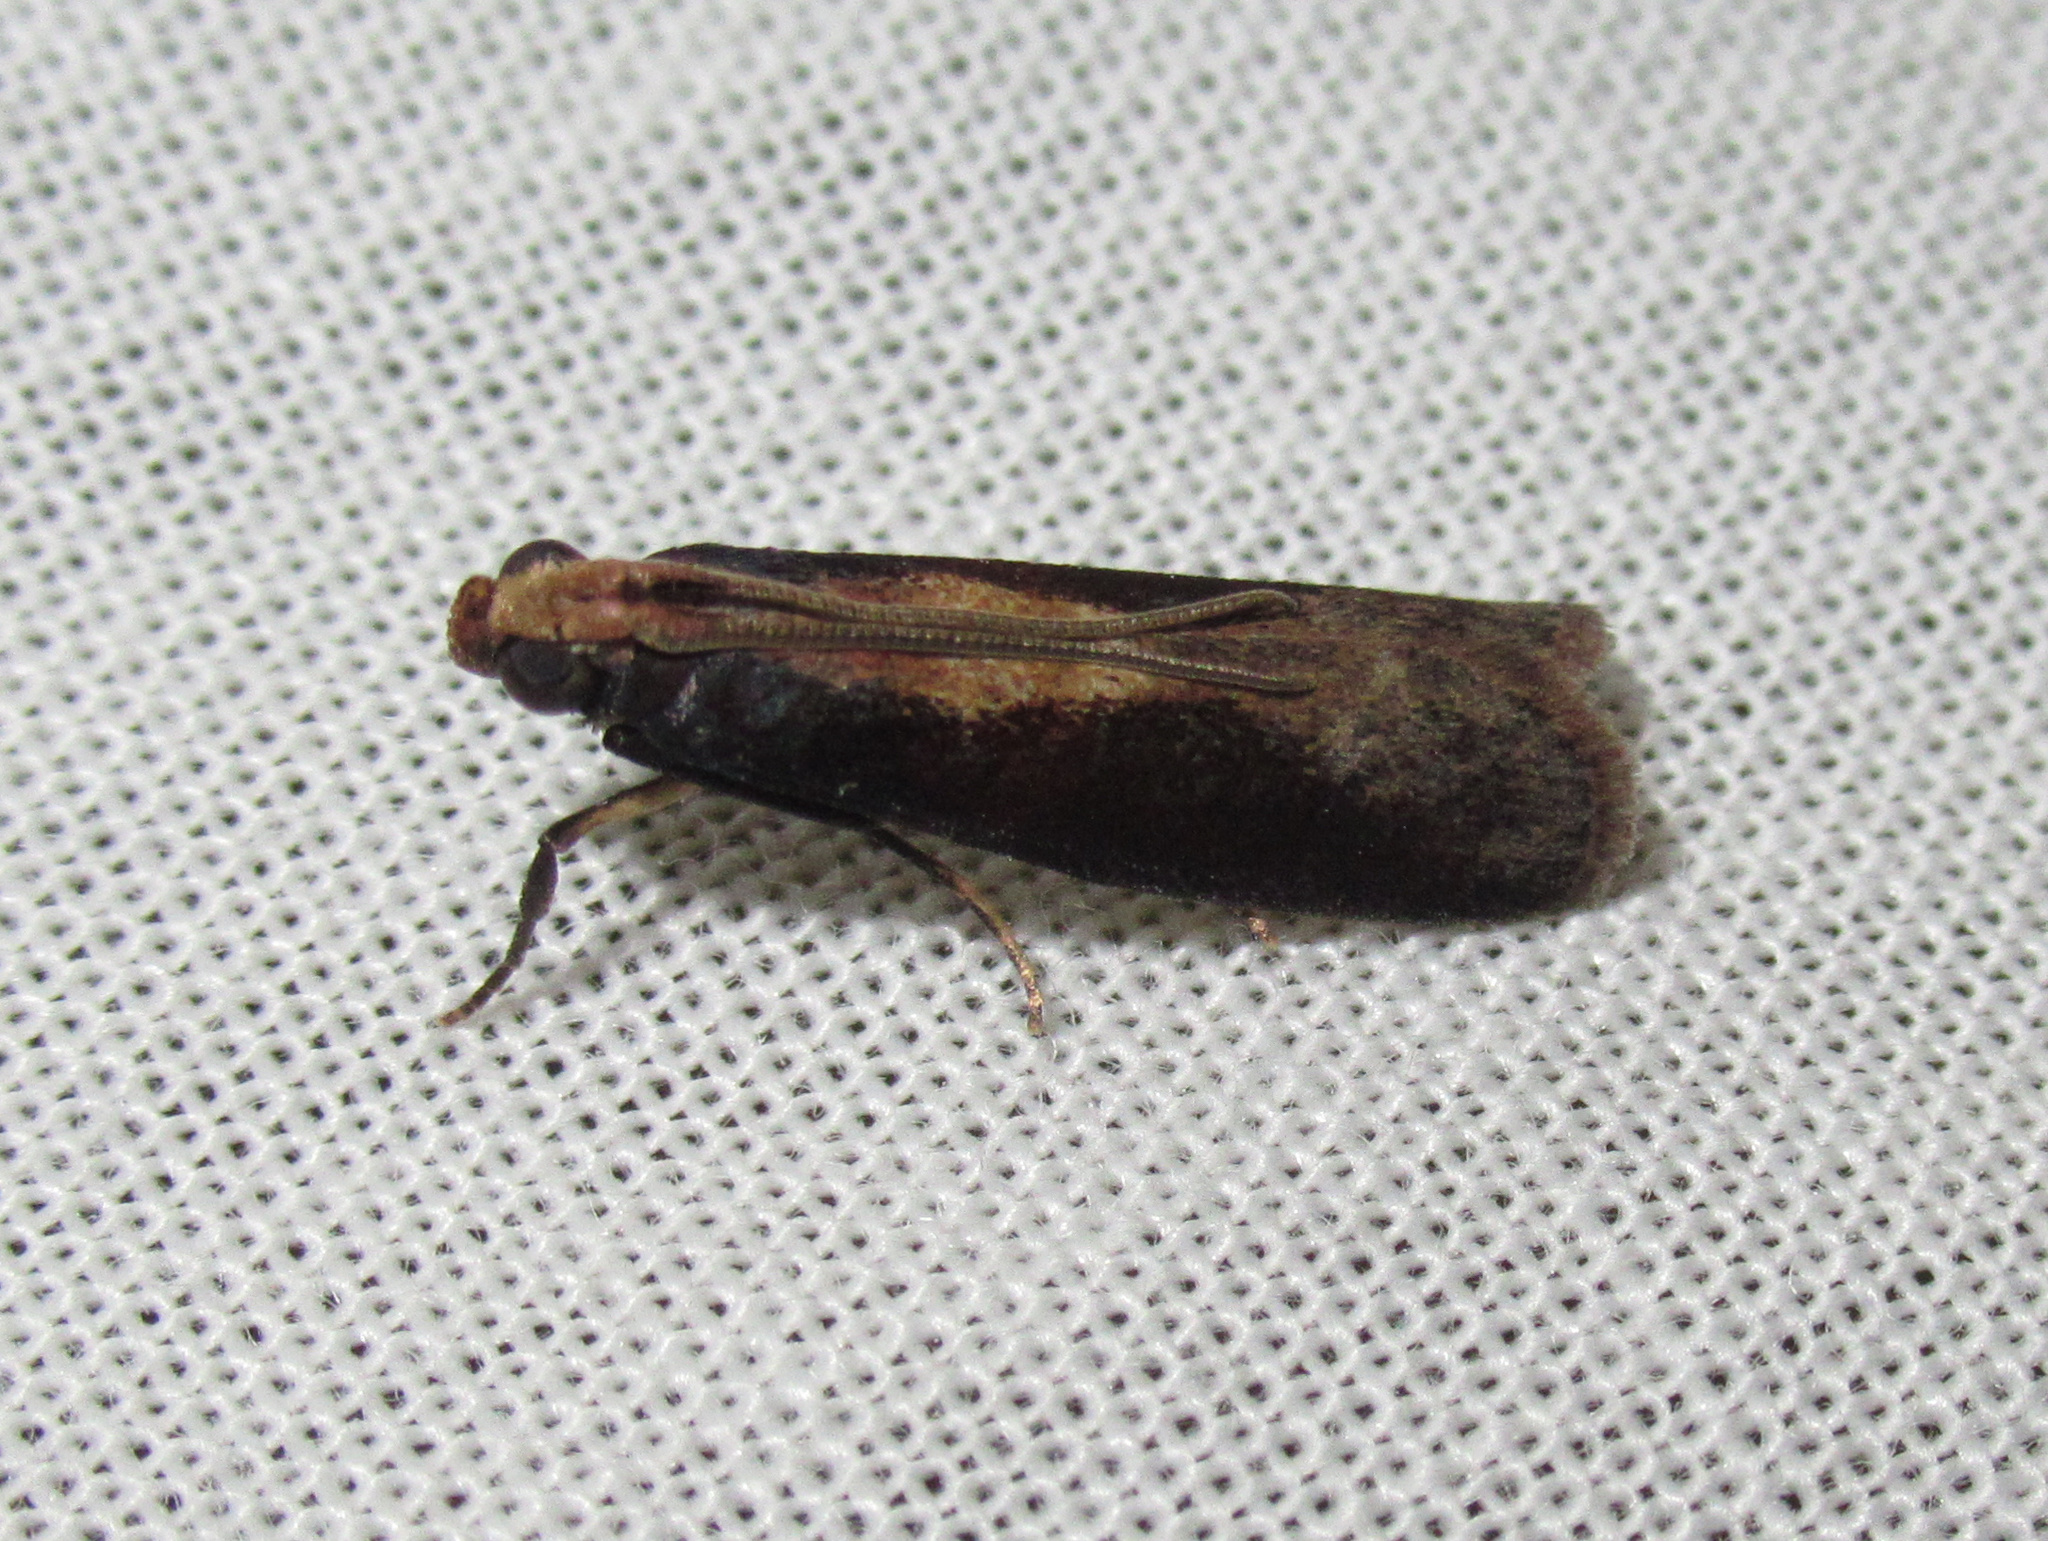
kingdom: Animalia
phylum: Arthropoda
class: Insecta
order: Lepidoptera
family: Pyralidae
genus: Ptyomaxia
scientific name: Ptyomaxia trigonogramma
